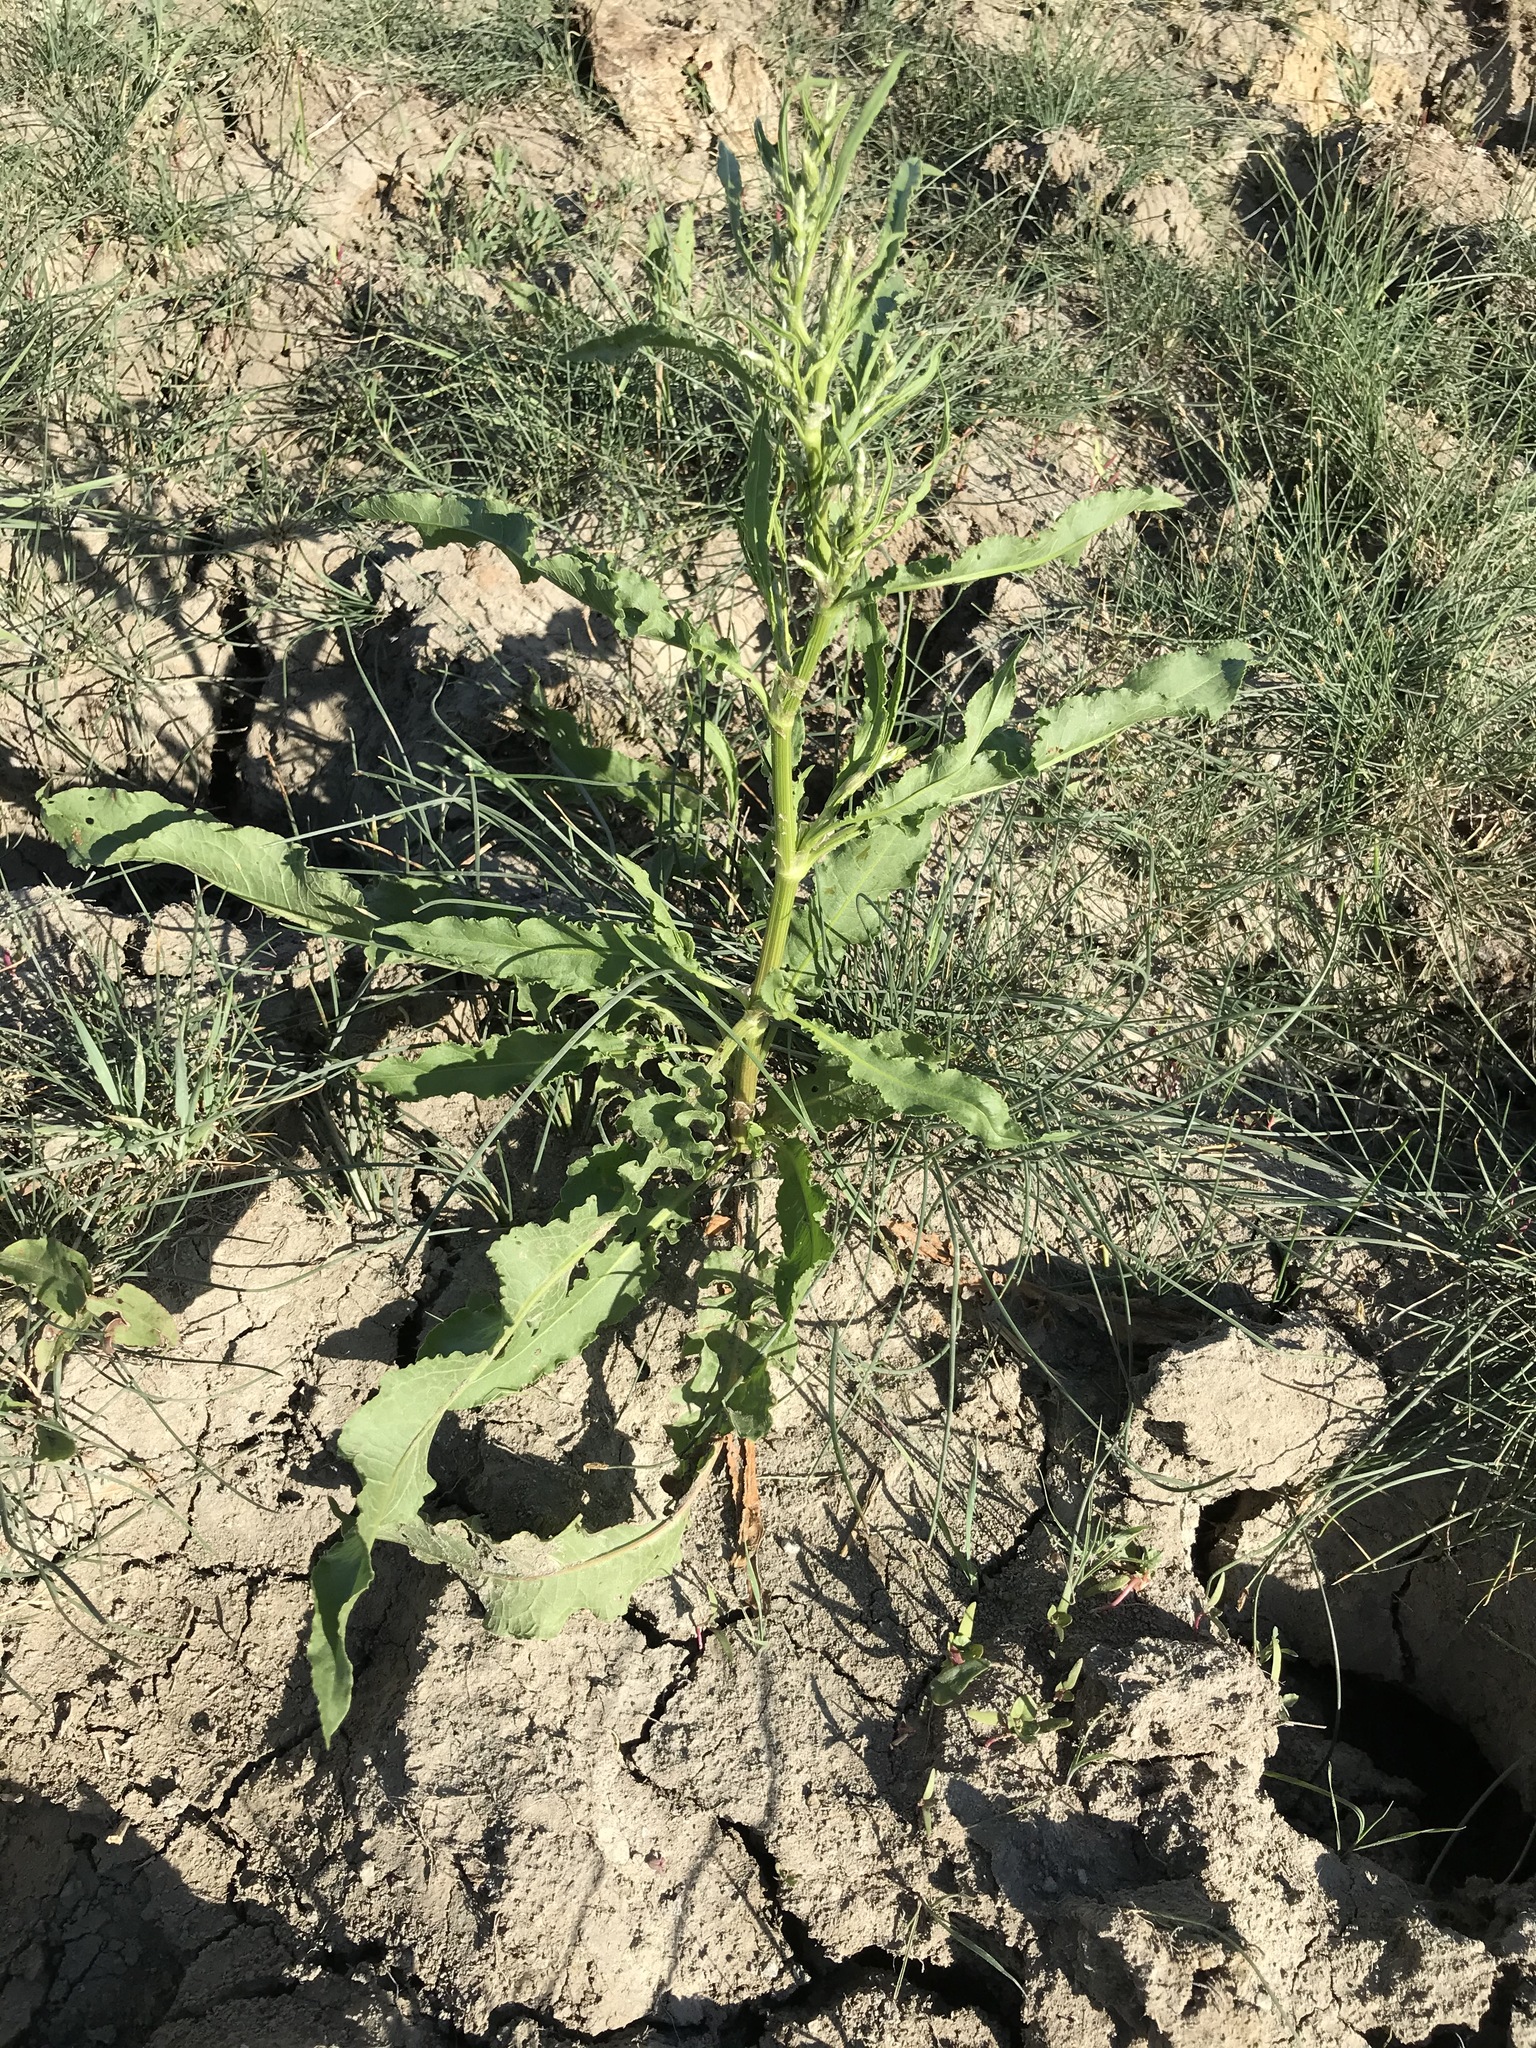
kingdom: Plantae
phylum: Tracheophyta
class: Magnoliopsida
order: Caryophyllales
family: Polygonaceae
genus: Rumex
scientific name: Rumex crispus
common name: Curled dock
